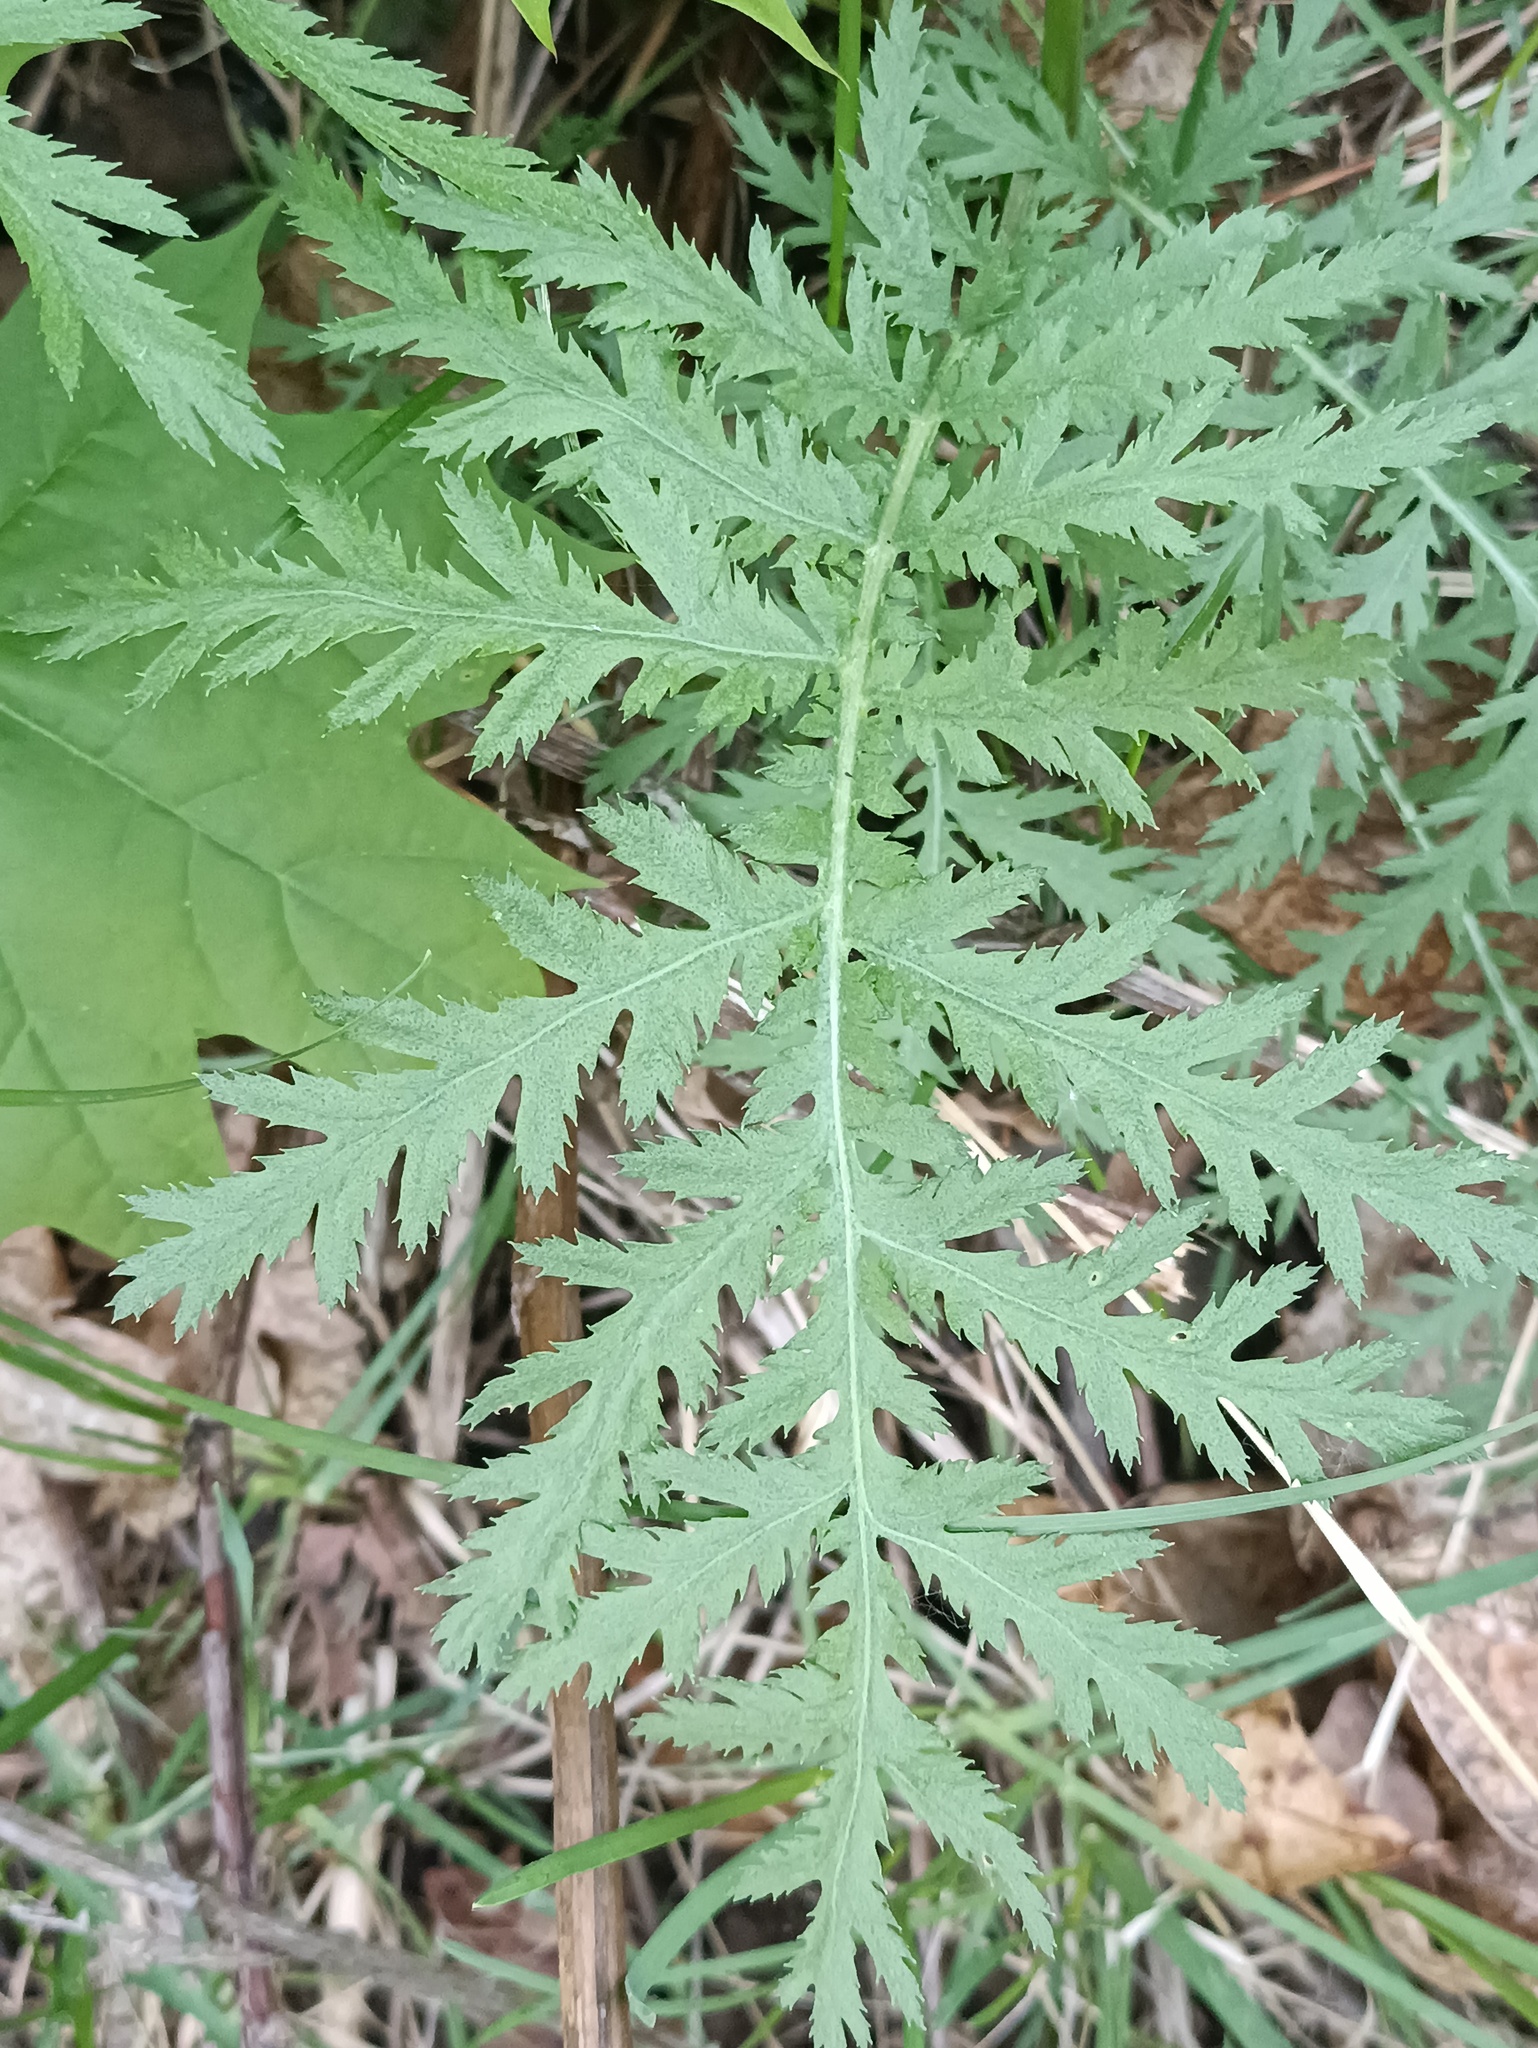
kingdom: Plantae
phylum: Tracheophyta
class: Magnoliopsida
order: Asterales
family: Asteraceae
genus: Tanacetum
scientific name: Tanacetum vulgare
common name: Common tansy
